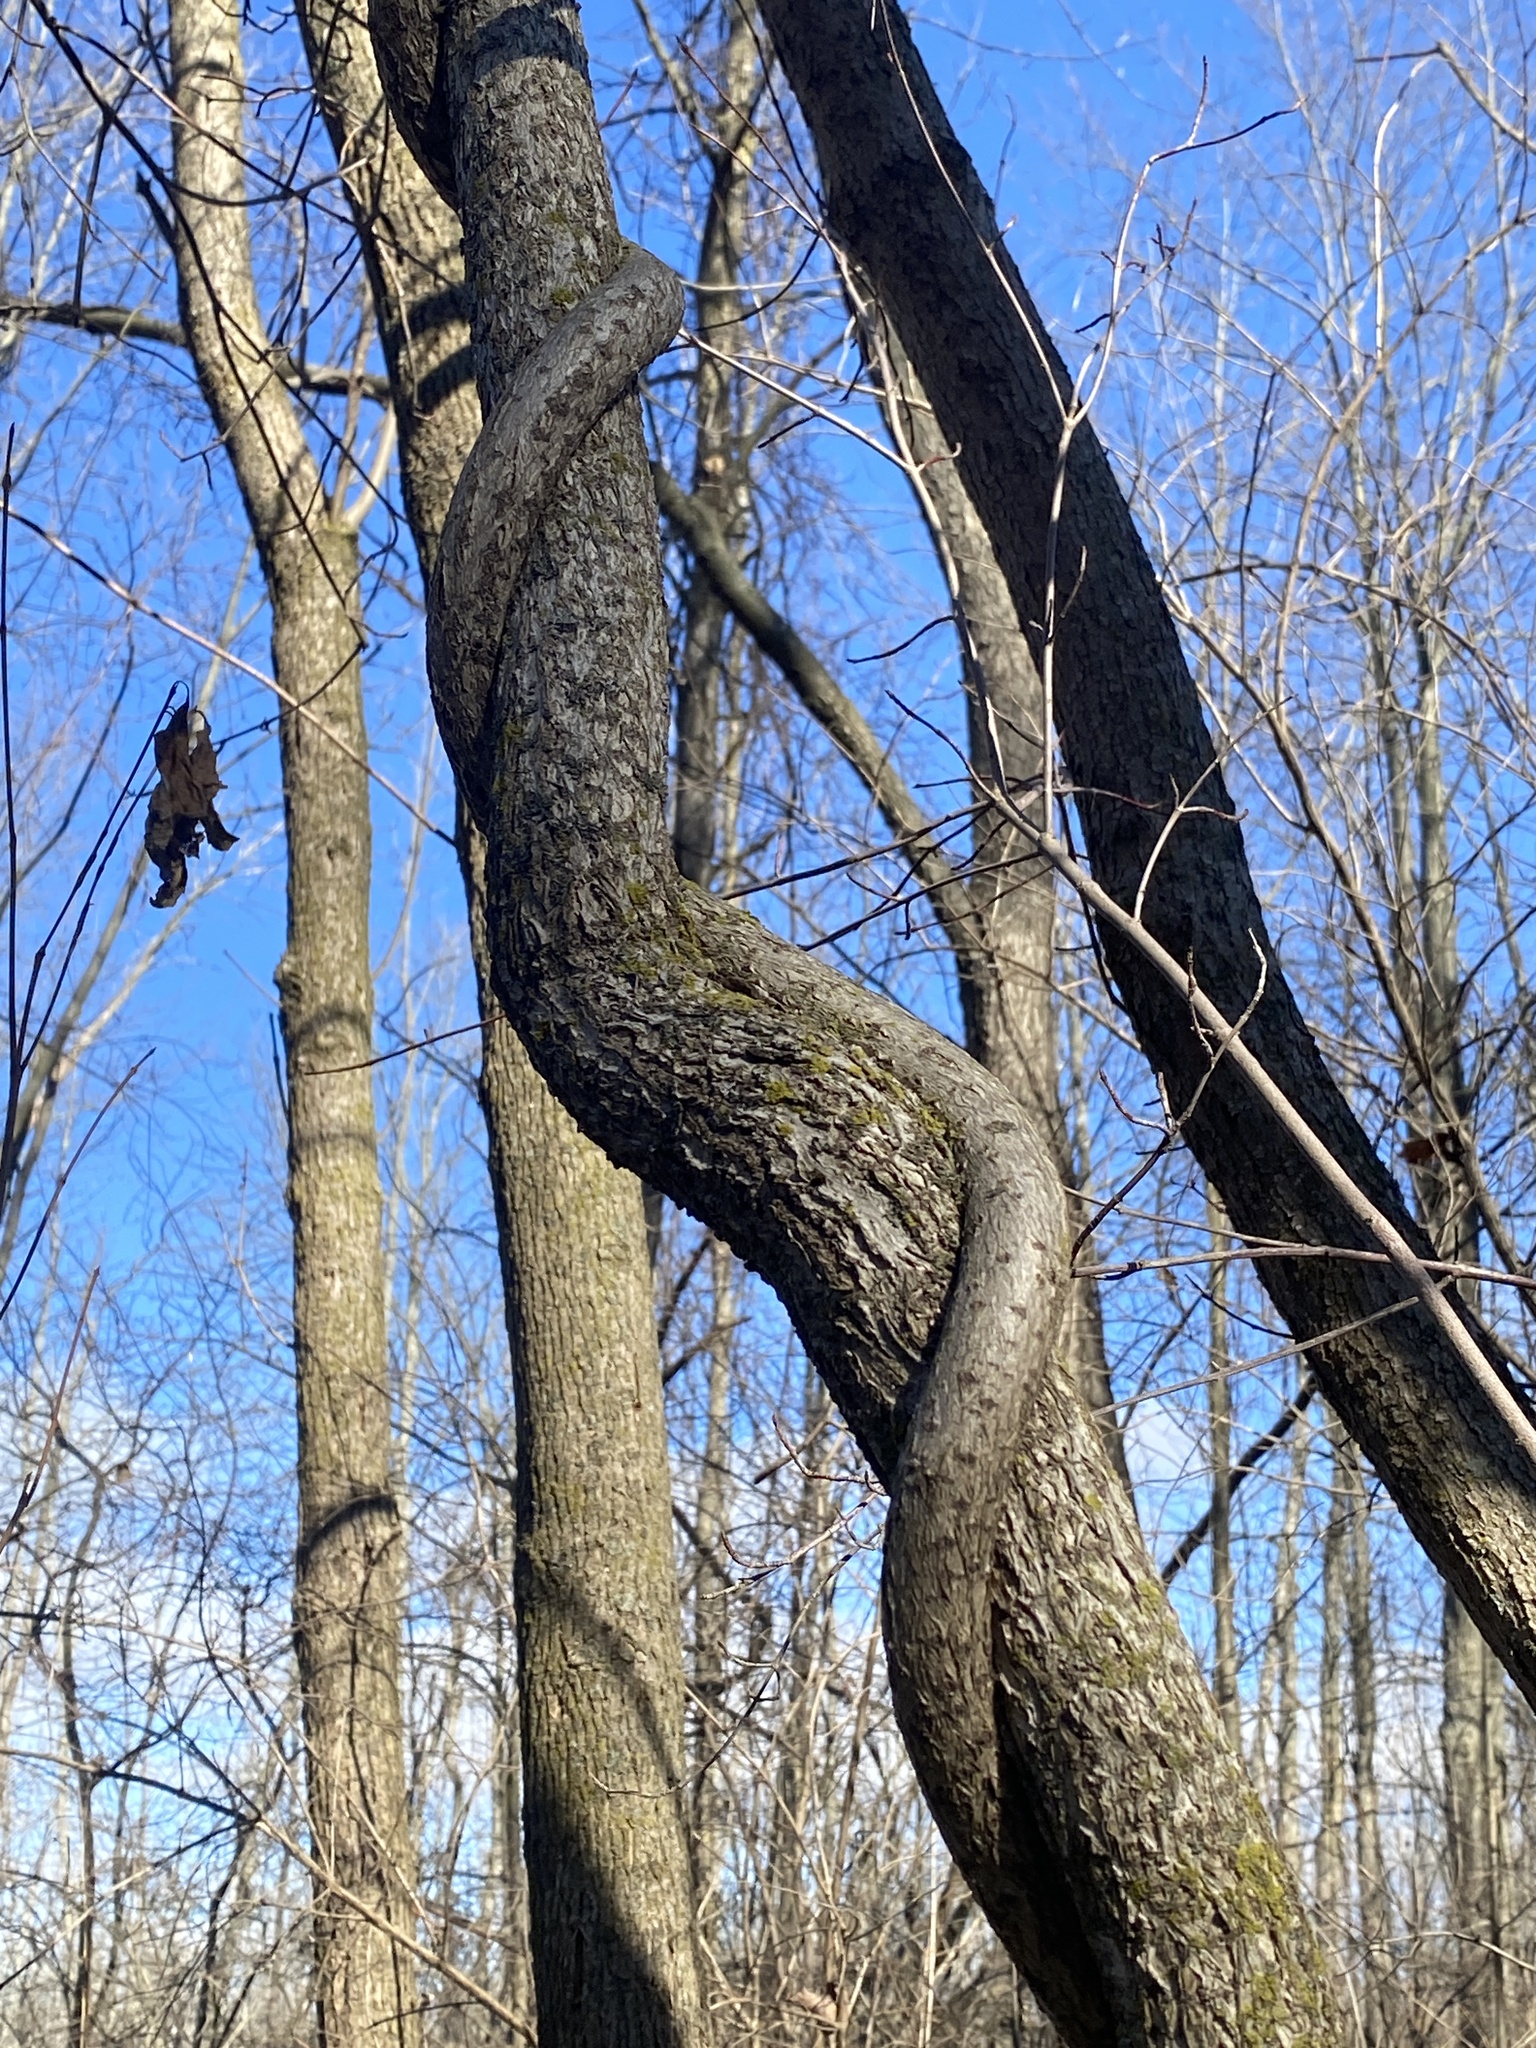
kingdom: Plantae
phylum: Tracheophyta
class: Magnoliopsida
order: Celastrales
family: Celastraceae
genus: Celastrus
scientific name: Celastrus orbiculatus
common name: Oriental bittersweet
